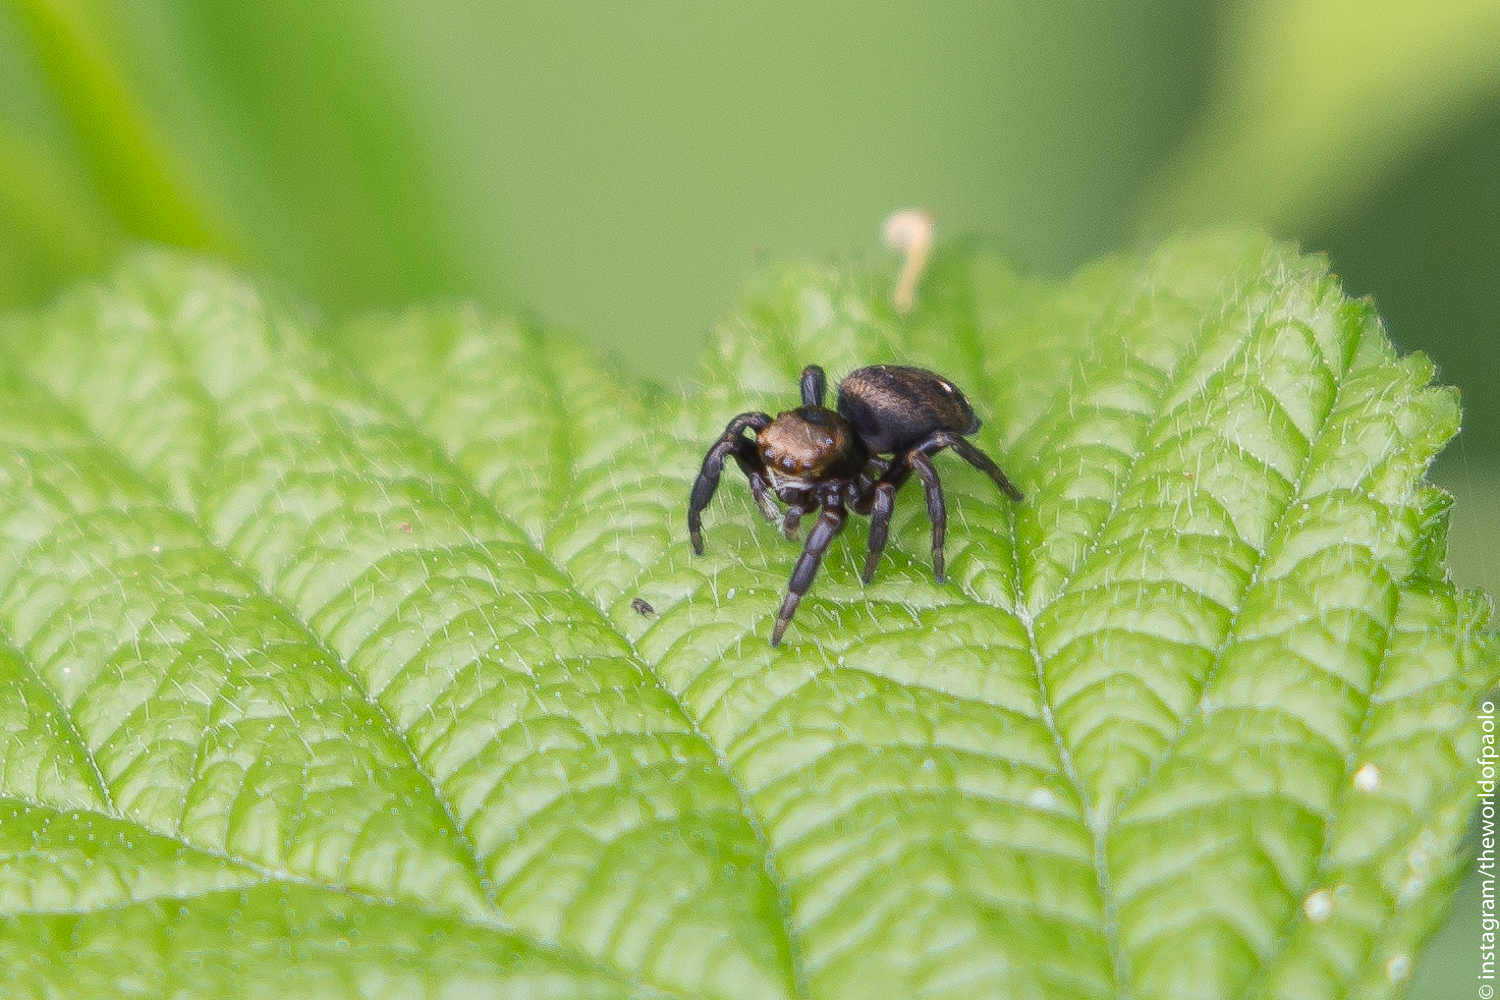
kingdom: Animalia
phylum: Arthropoda
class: Arachnida
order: Araneae
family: Salticidae
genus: Evarcha
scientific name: Evarcha arcuata
